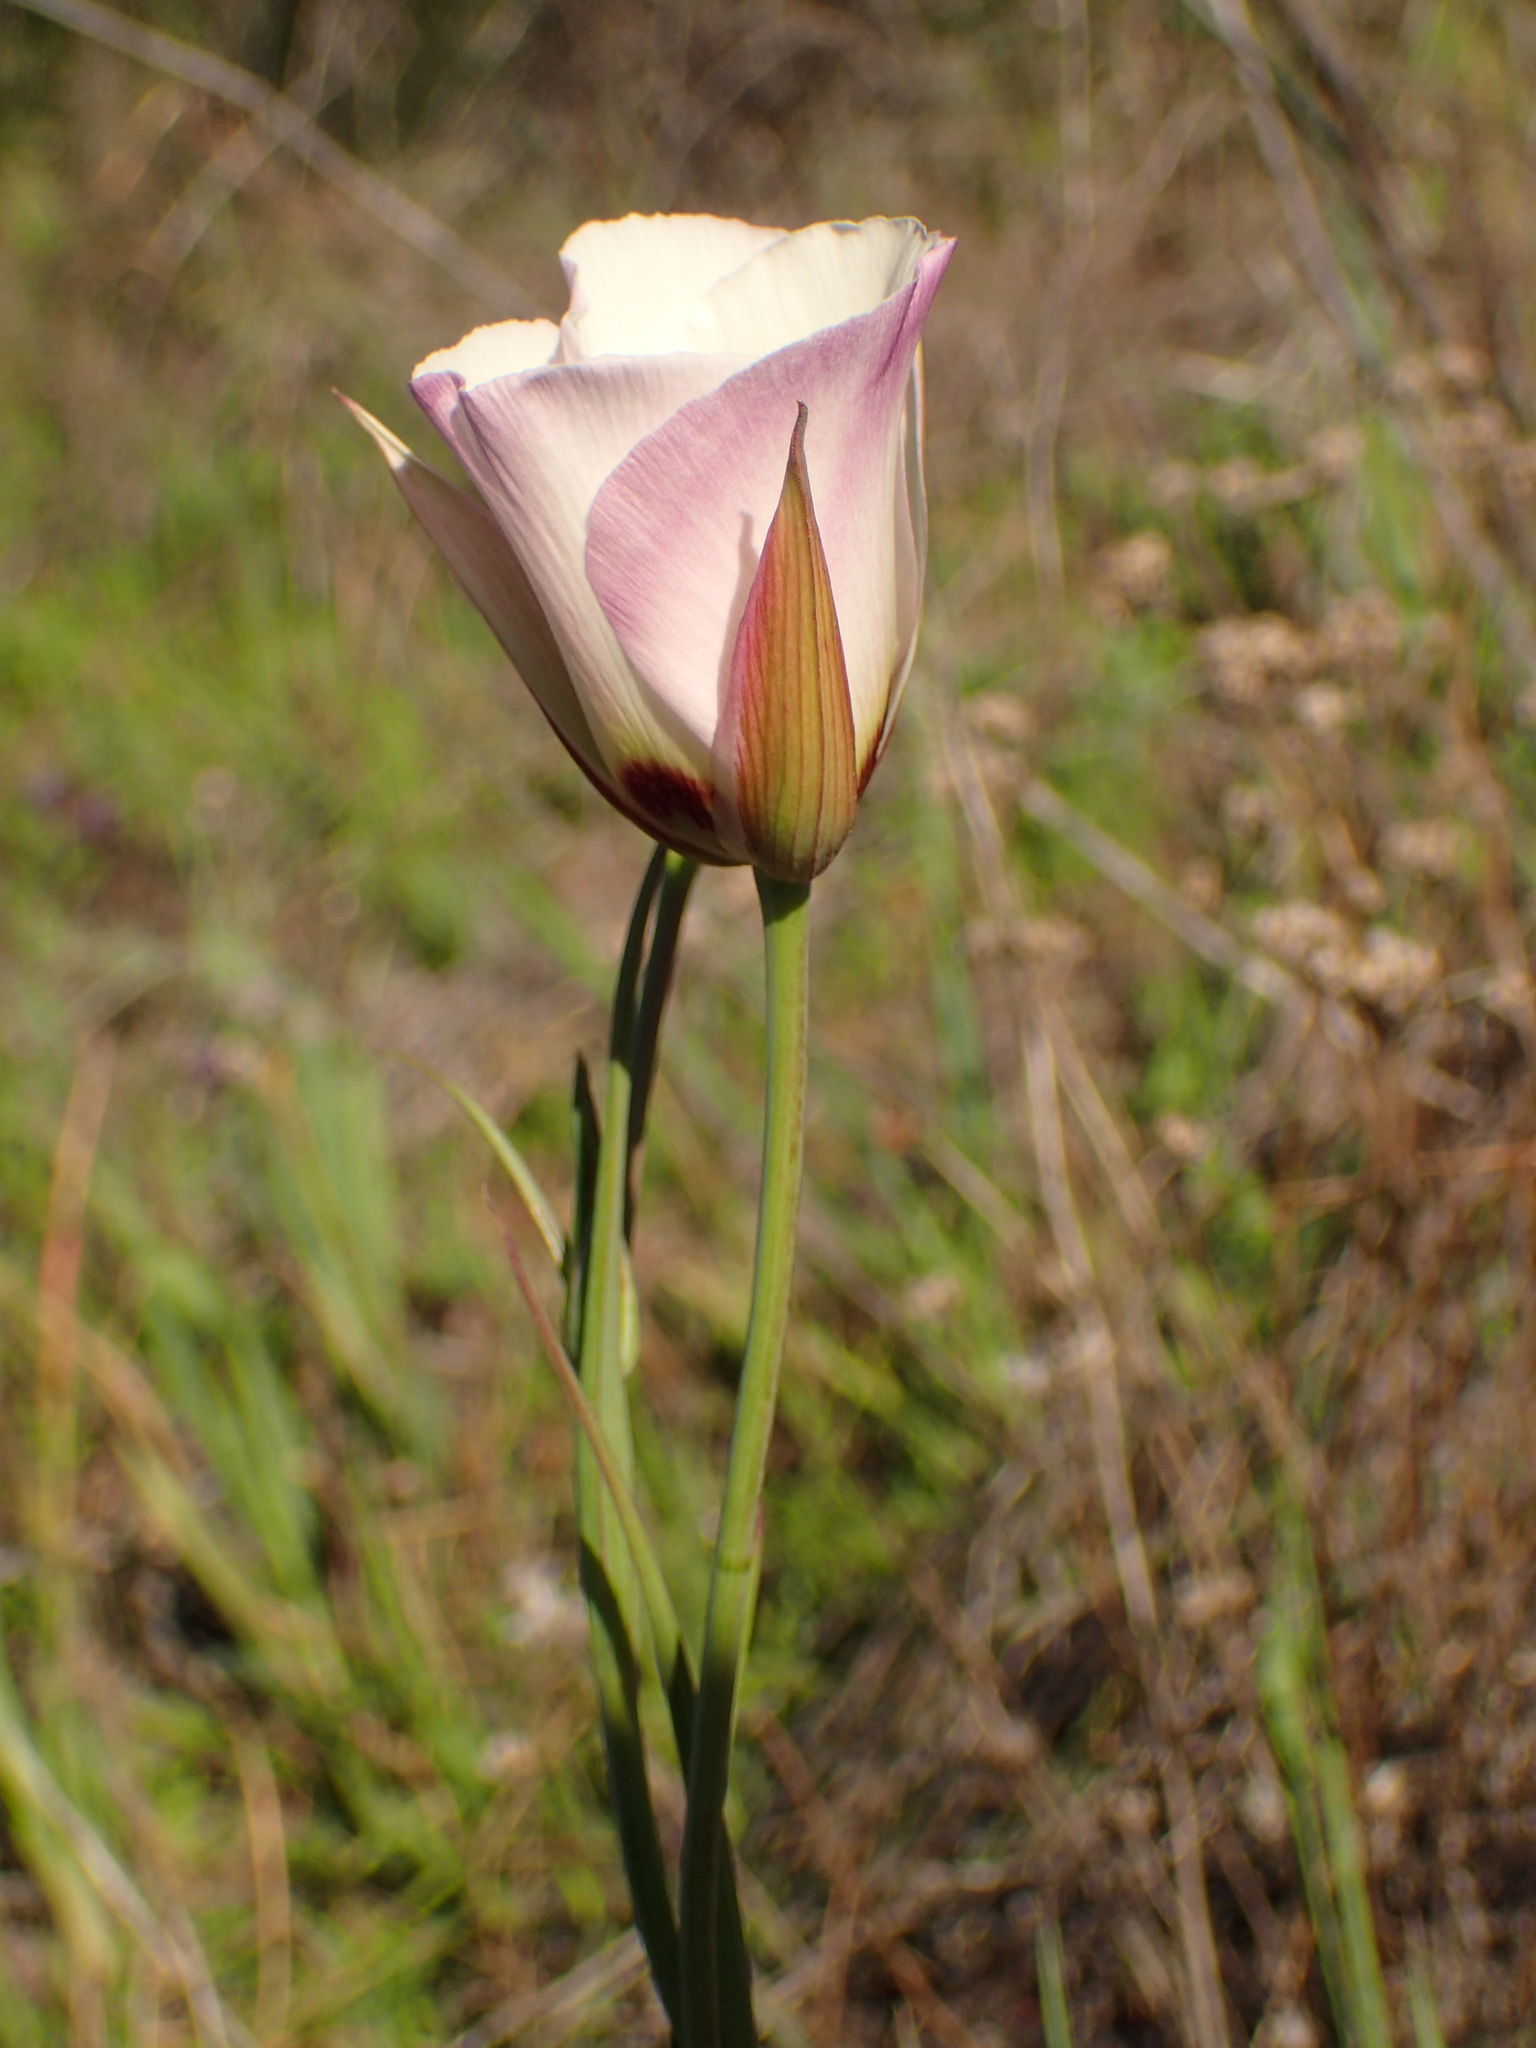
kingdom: Plantae
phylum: Tracheophyta
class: Liliopsida
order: Liliales
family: Liliaceae
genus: Calochortus
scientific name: Calochortus catalinae
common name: Catalina mariposa-lily
